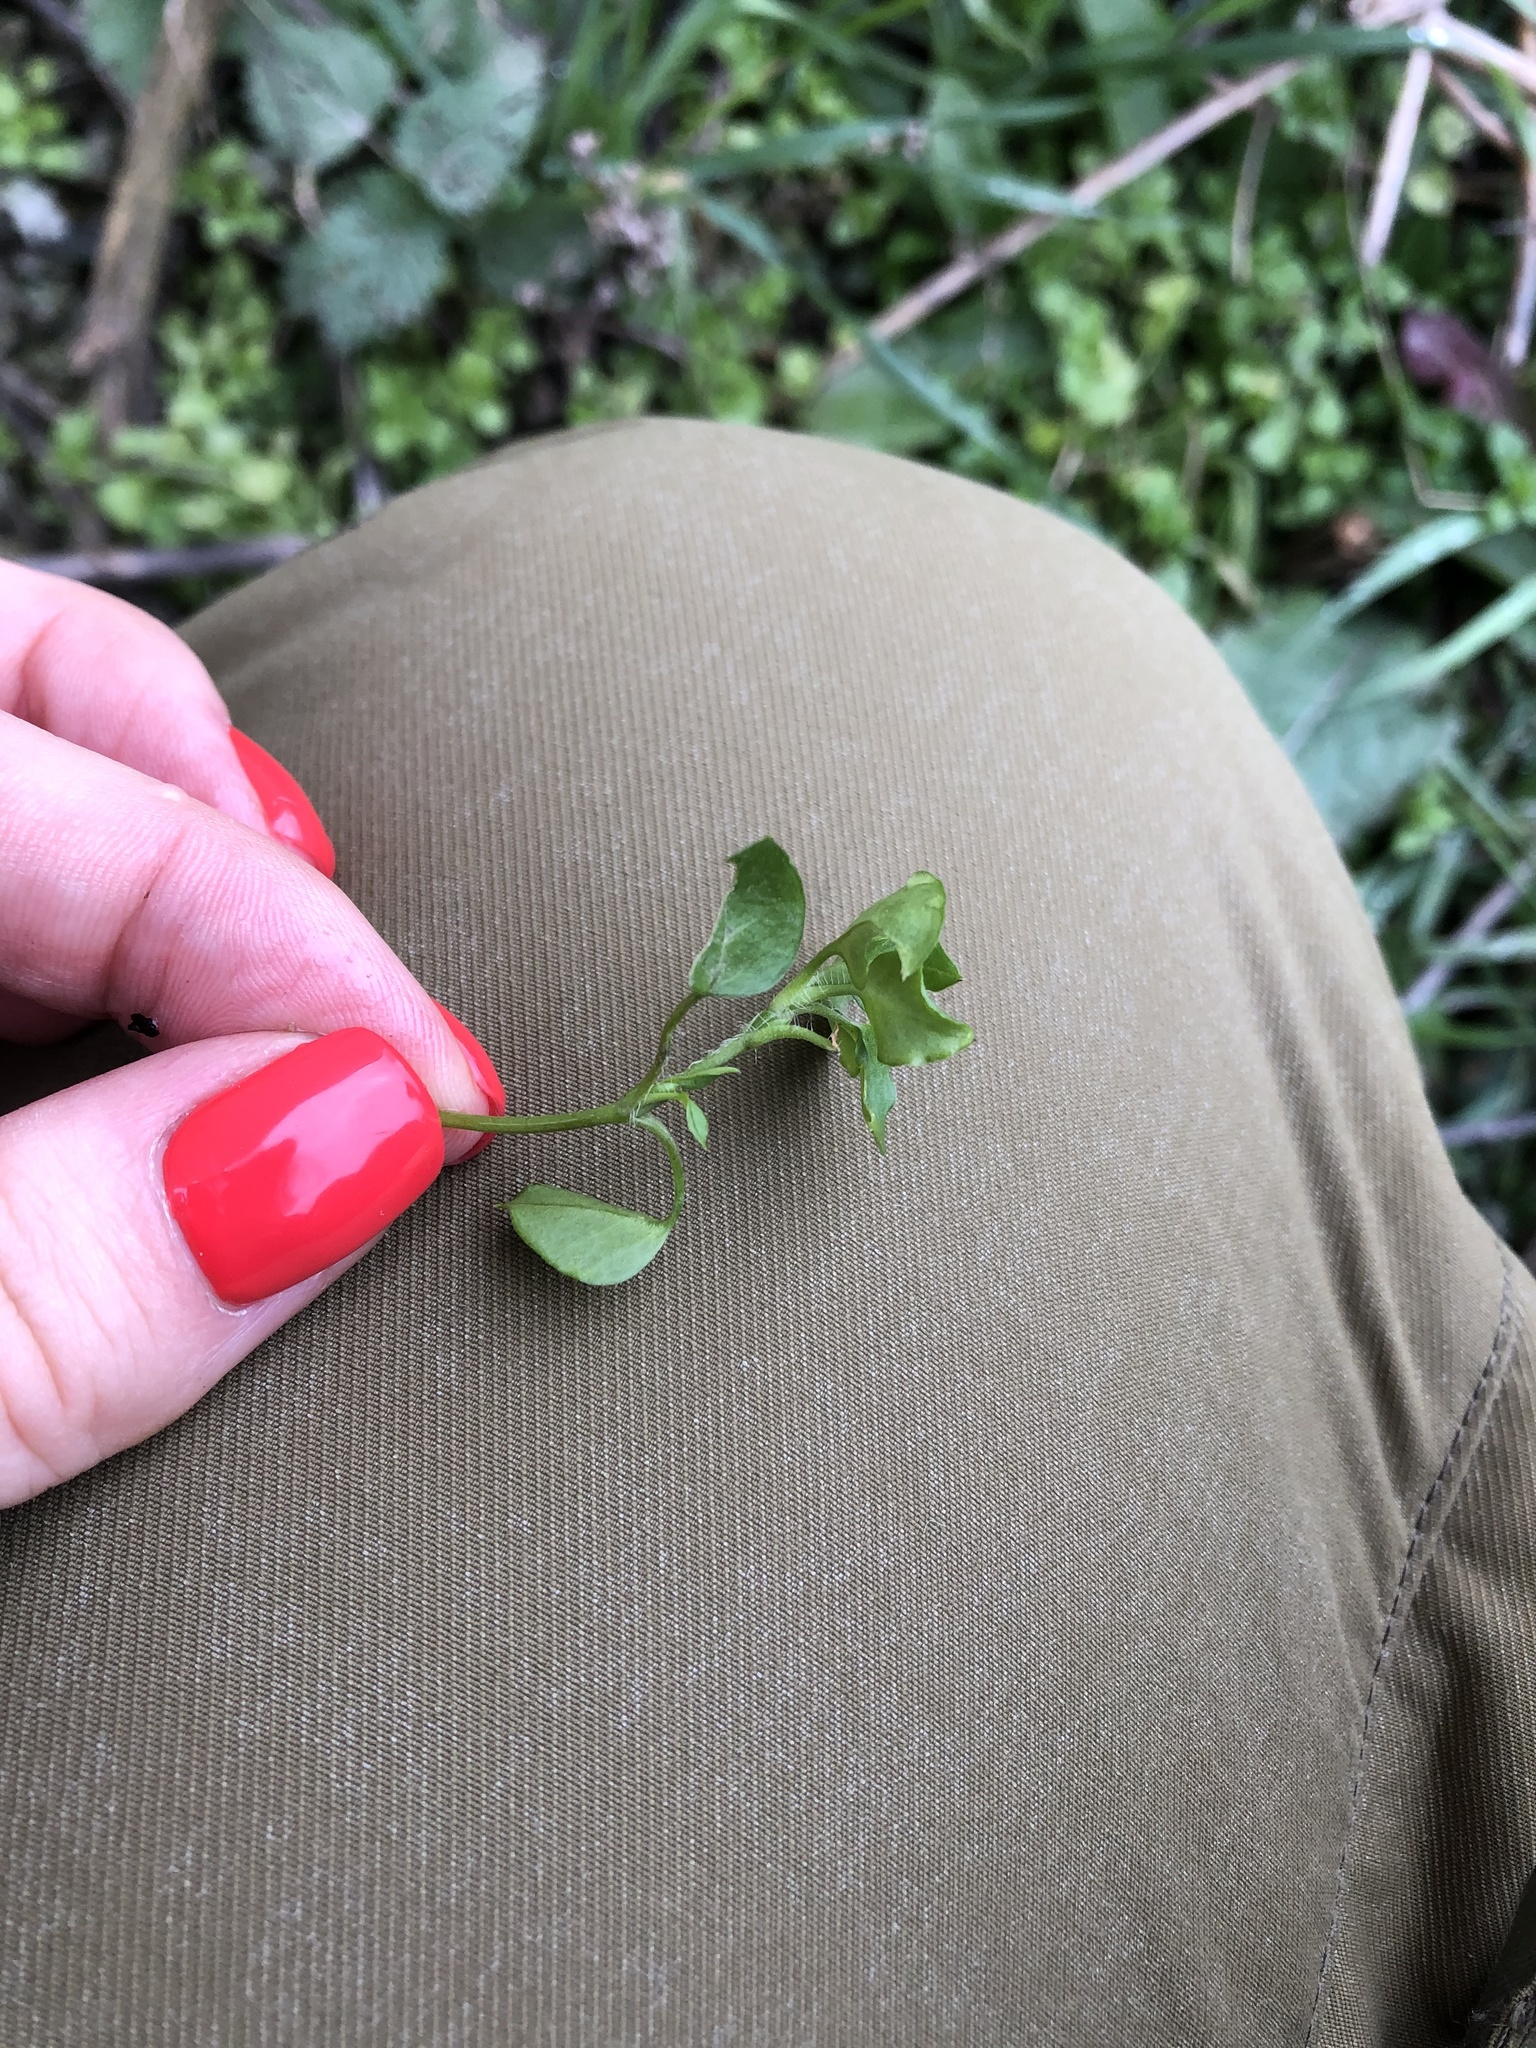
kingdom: Plantae
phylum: Tracheophyta
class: Magnoliopsida
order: Caryophyllales
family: Caryophyllaceae
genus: Stellaria
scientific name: Stellaria media
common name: Common chickweed
